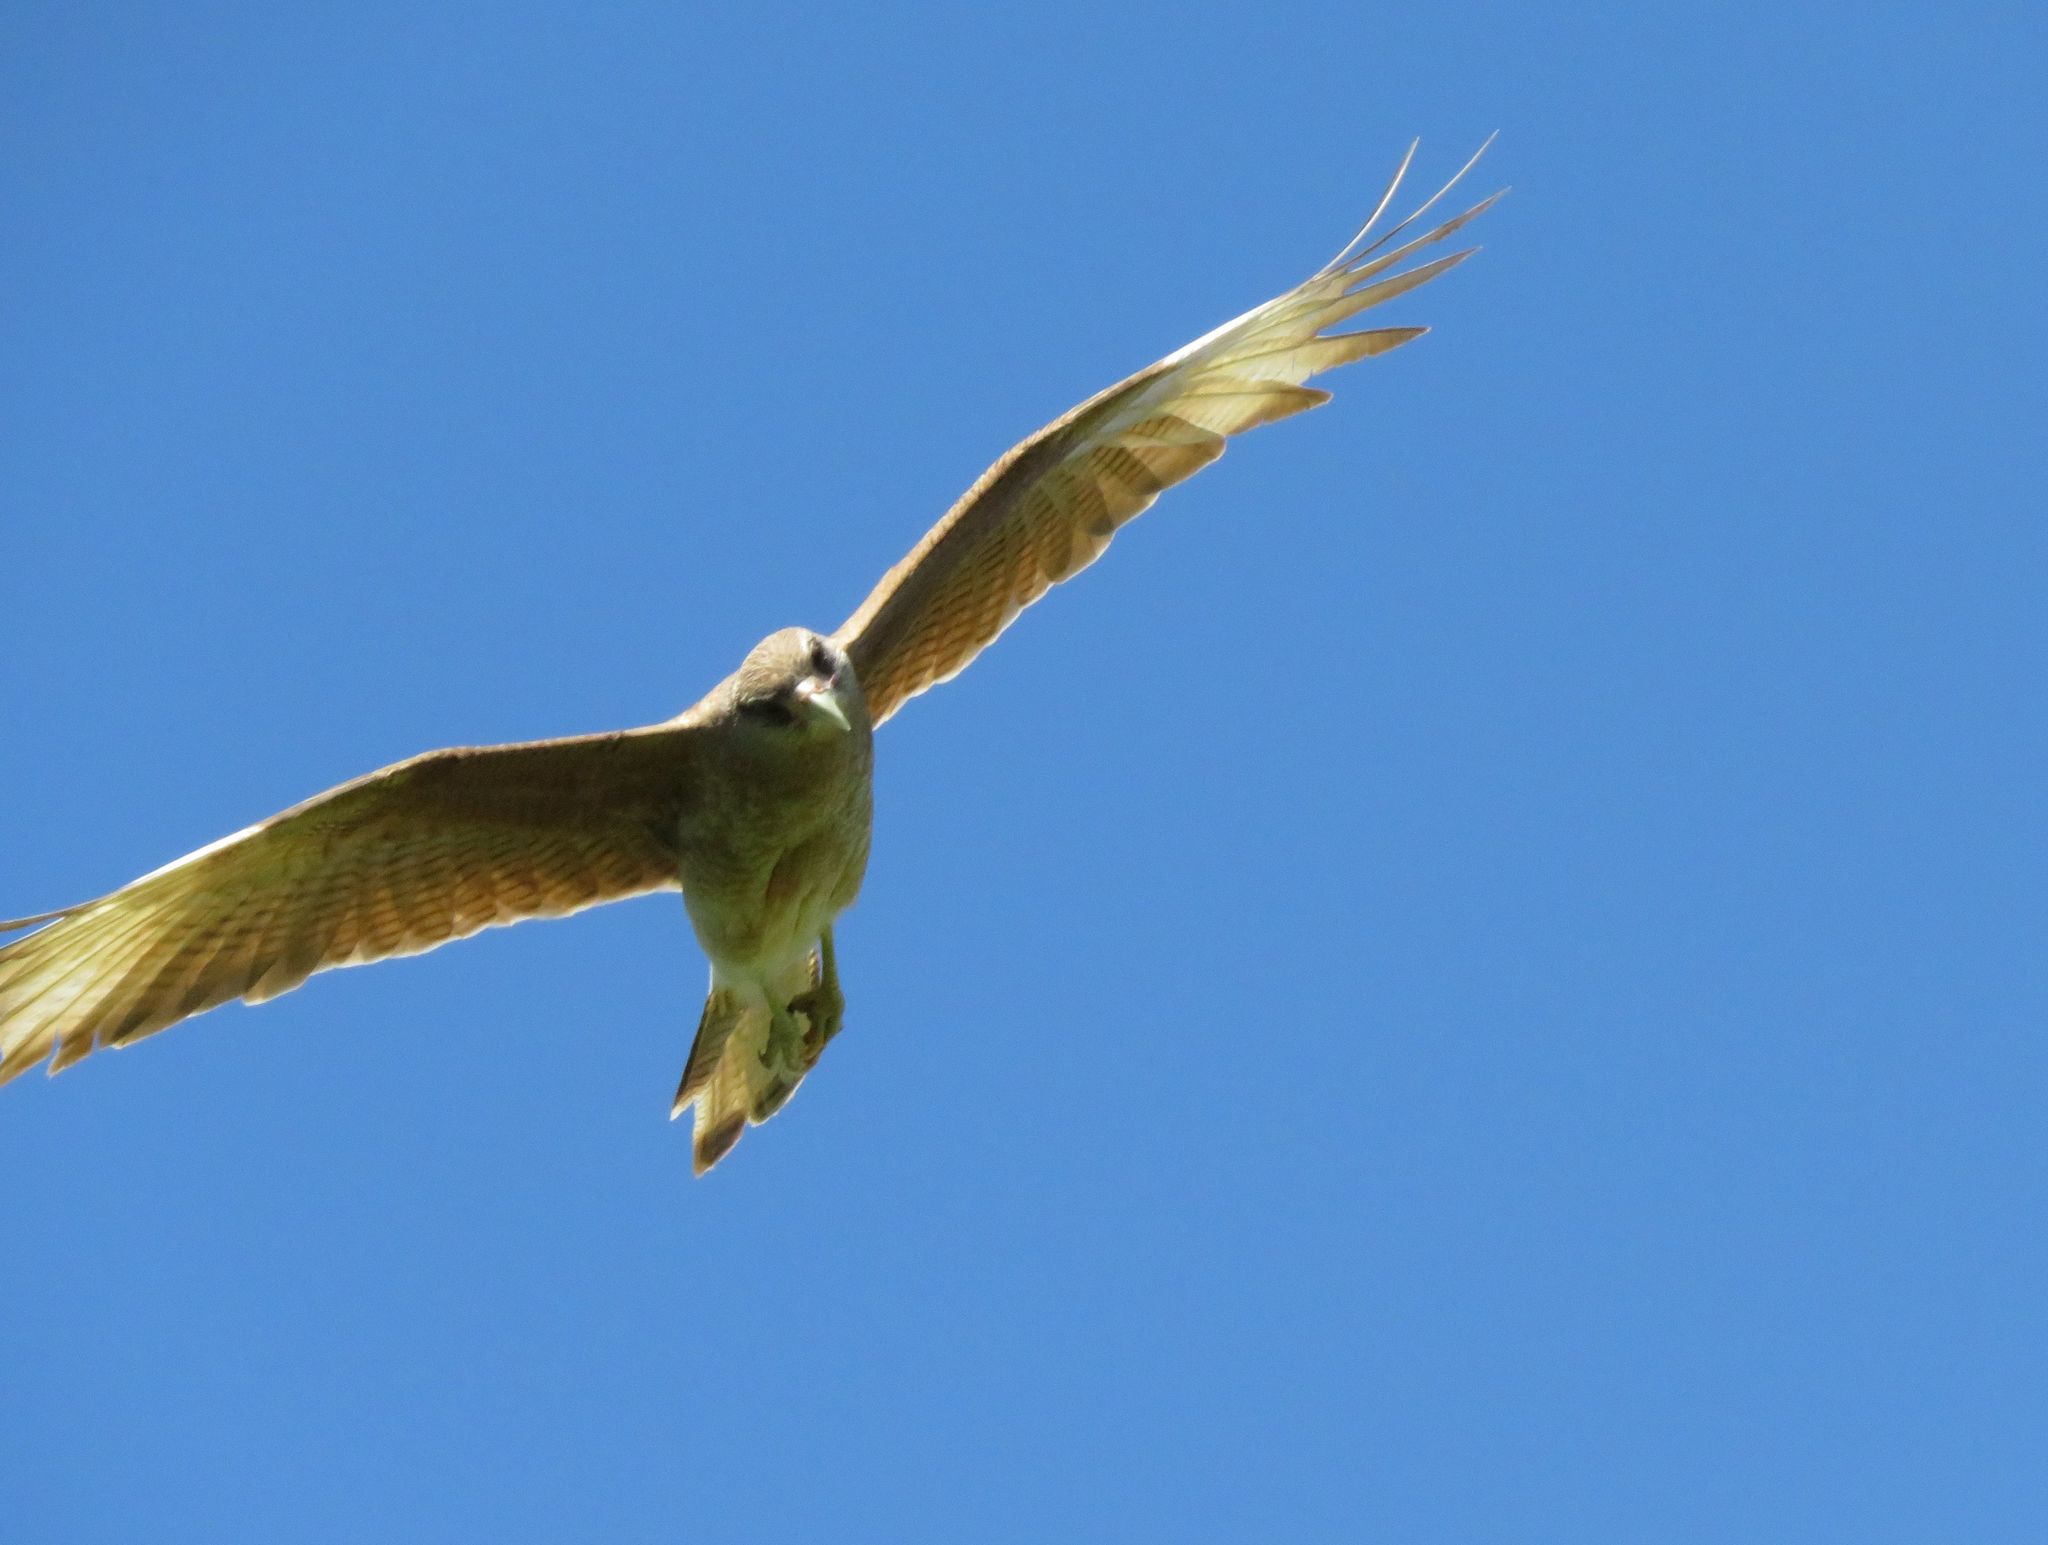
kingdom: Animalia
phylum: Chordata
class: Aves
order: Falconiformes
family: Falconidae
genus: Daptrius
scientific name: Daptrius
